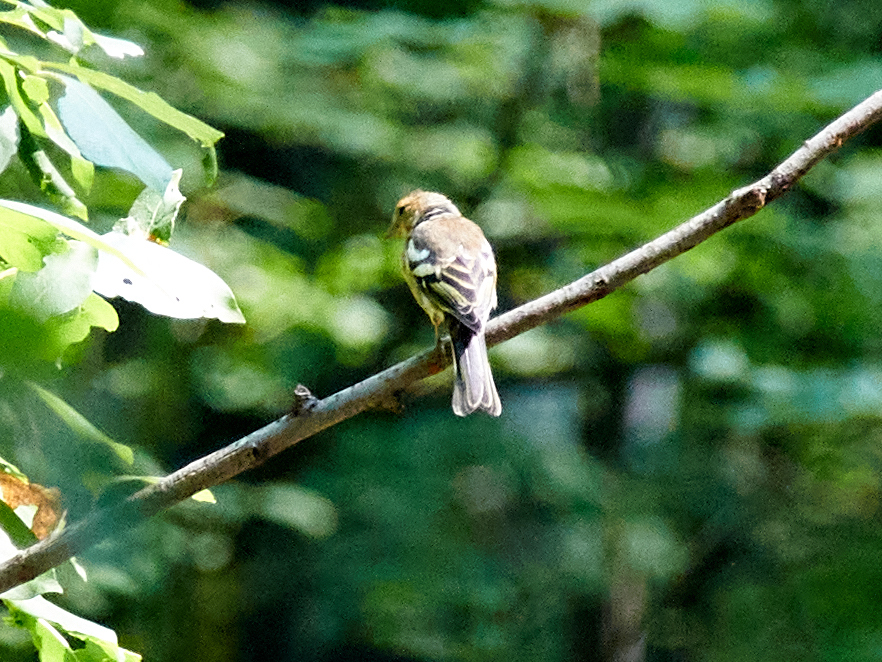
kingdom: Animalia
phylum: Chordata
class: Aves
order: Passeriformes
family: Fringillidae
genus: Fringilla
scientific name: Fringilla coelebs
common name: Common chaffinch
